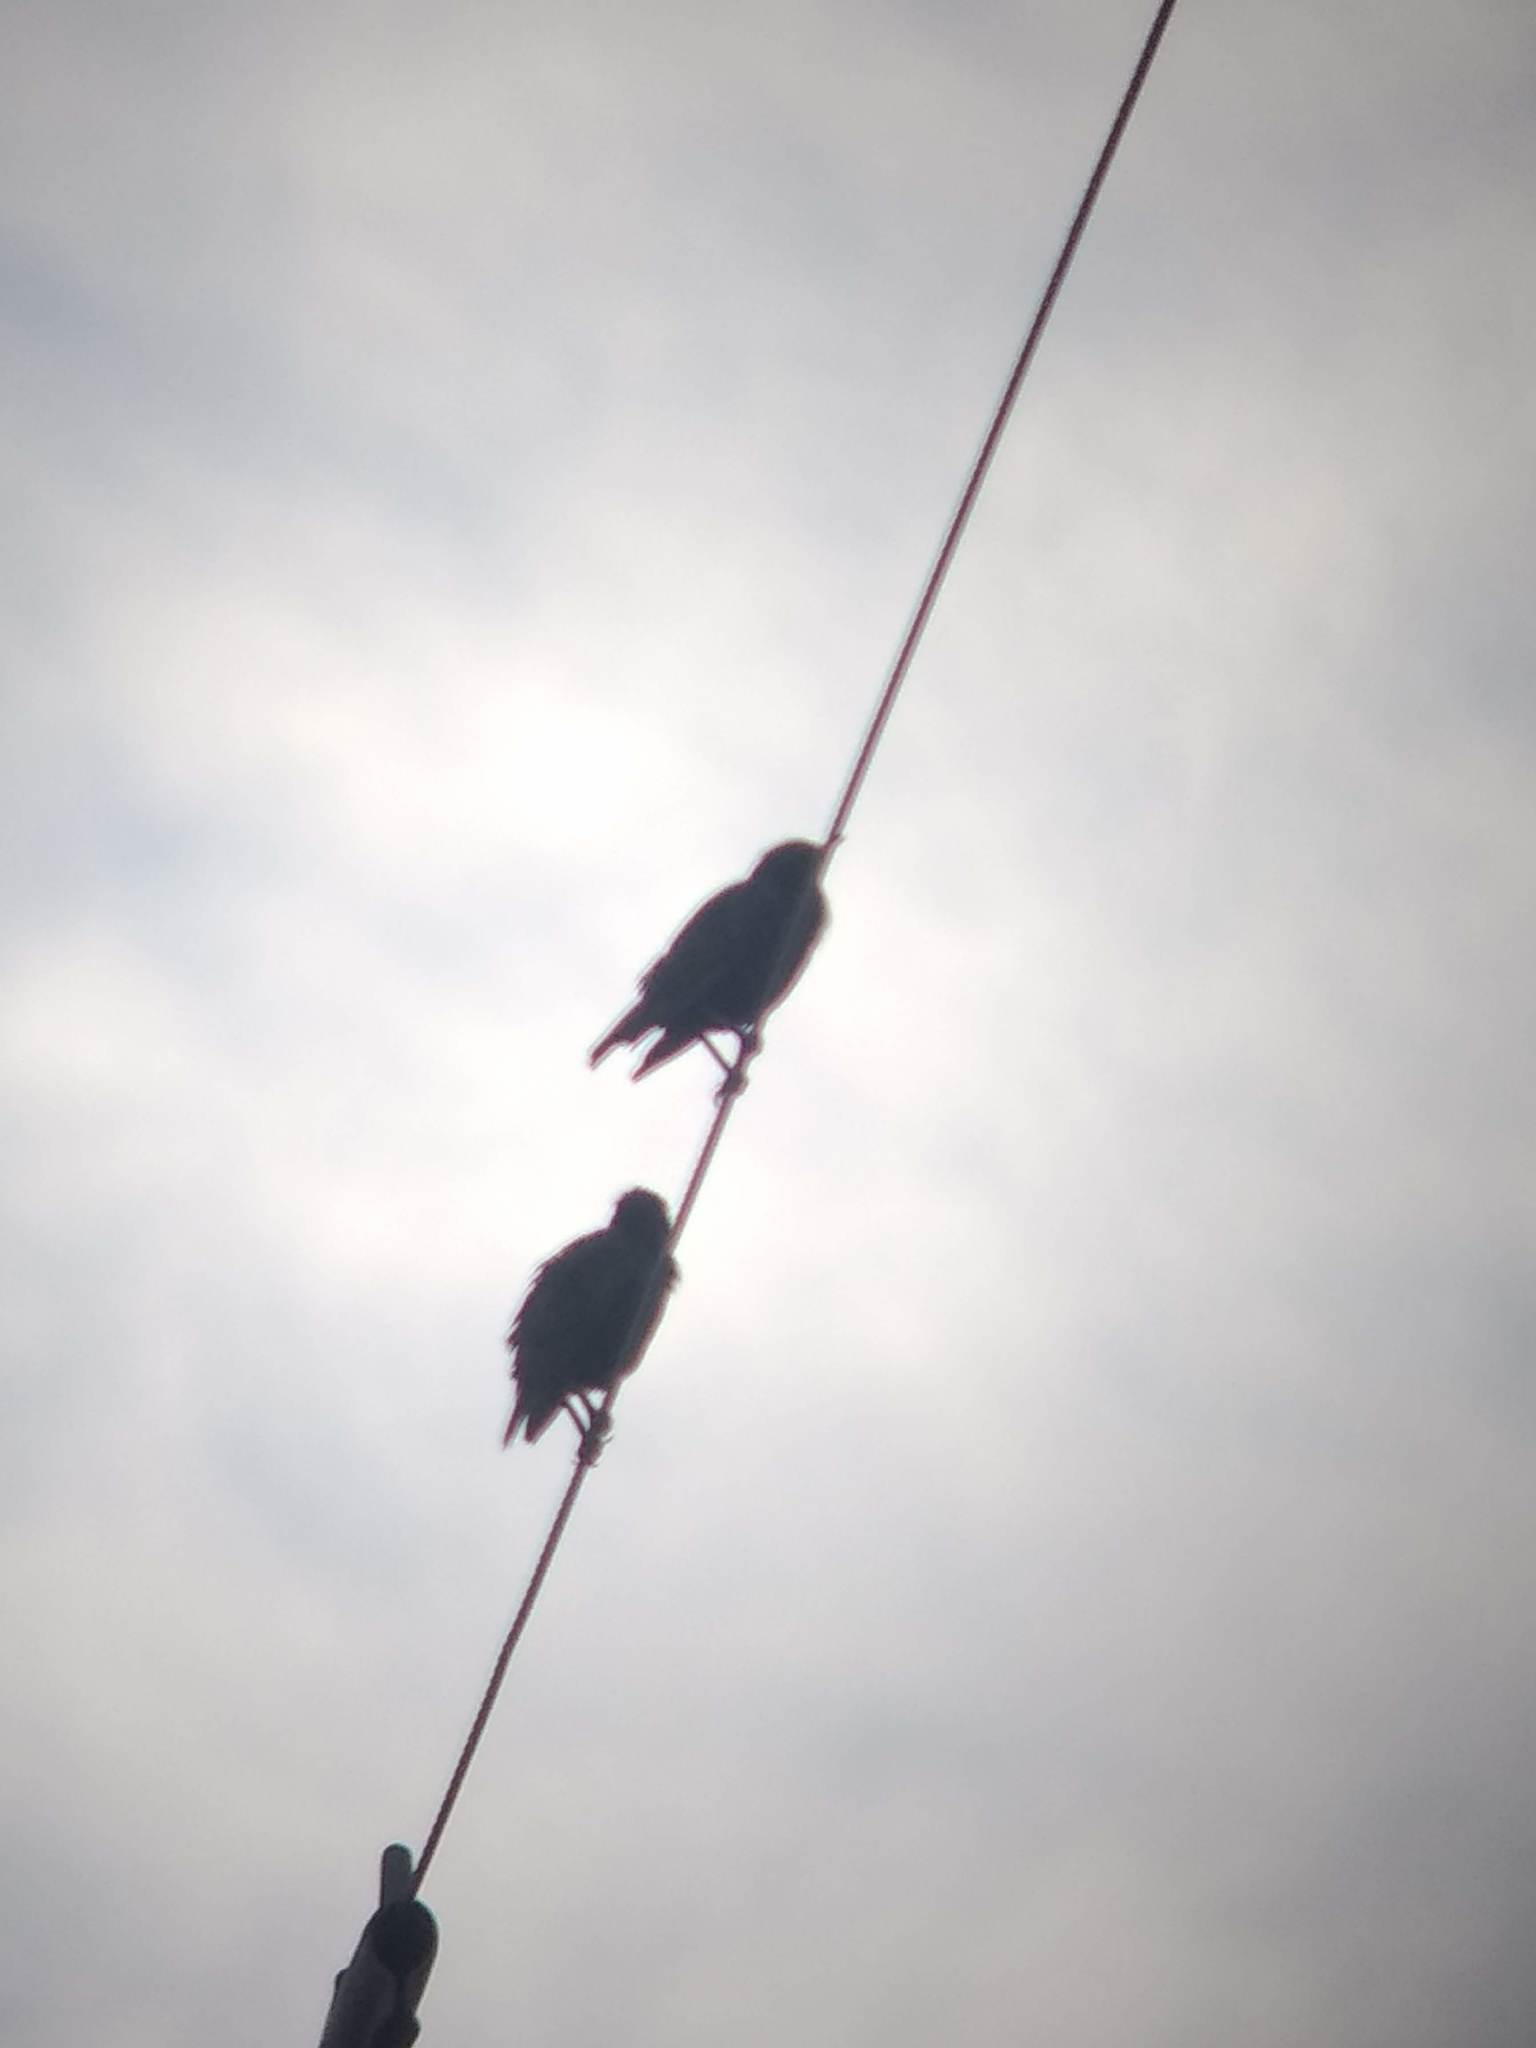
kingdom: Animalia
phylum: Chordata
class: Aves
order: Passeriformes
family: Sturnidae
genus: Sturnus
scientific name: Sturnus vulgaris
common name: Common starling
